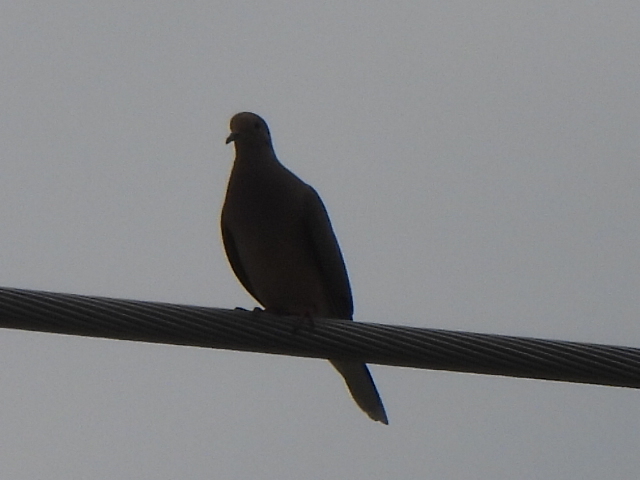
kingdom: Animalia
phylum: Chordata
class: Aves
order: Columbiformes
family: Columbidae
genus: Zenaida
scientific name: Zenaida macroura
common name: Mourning dove
